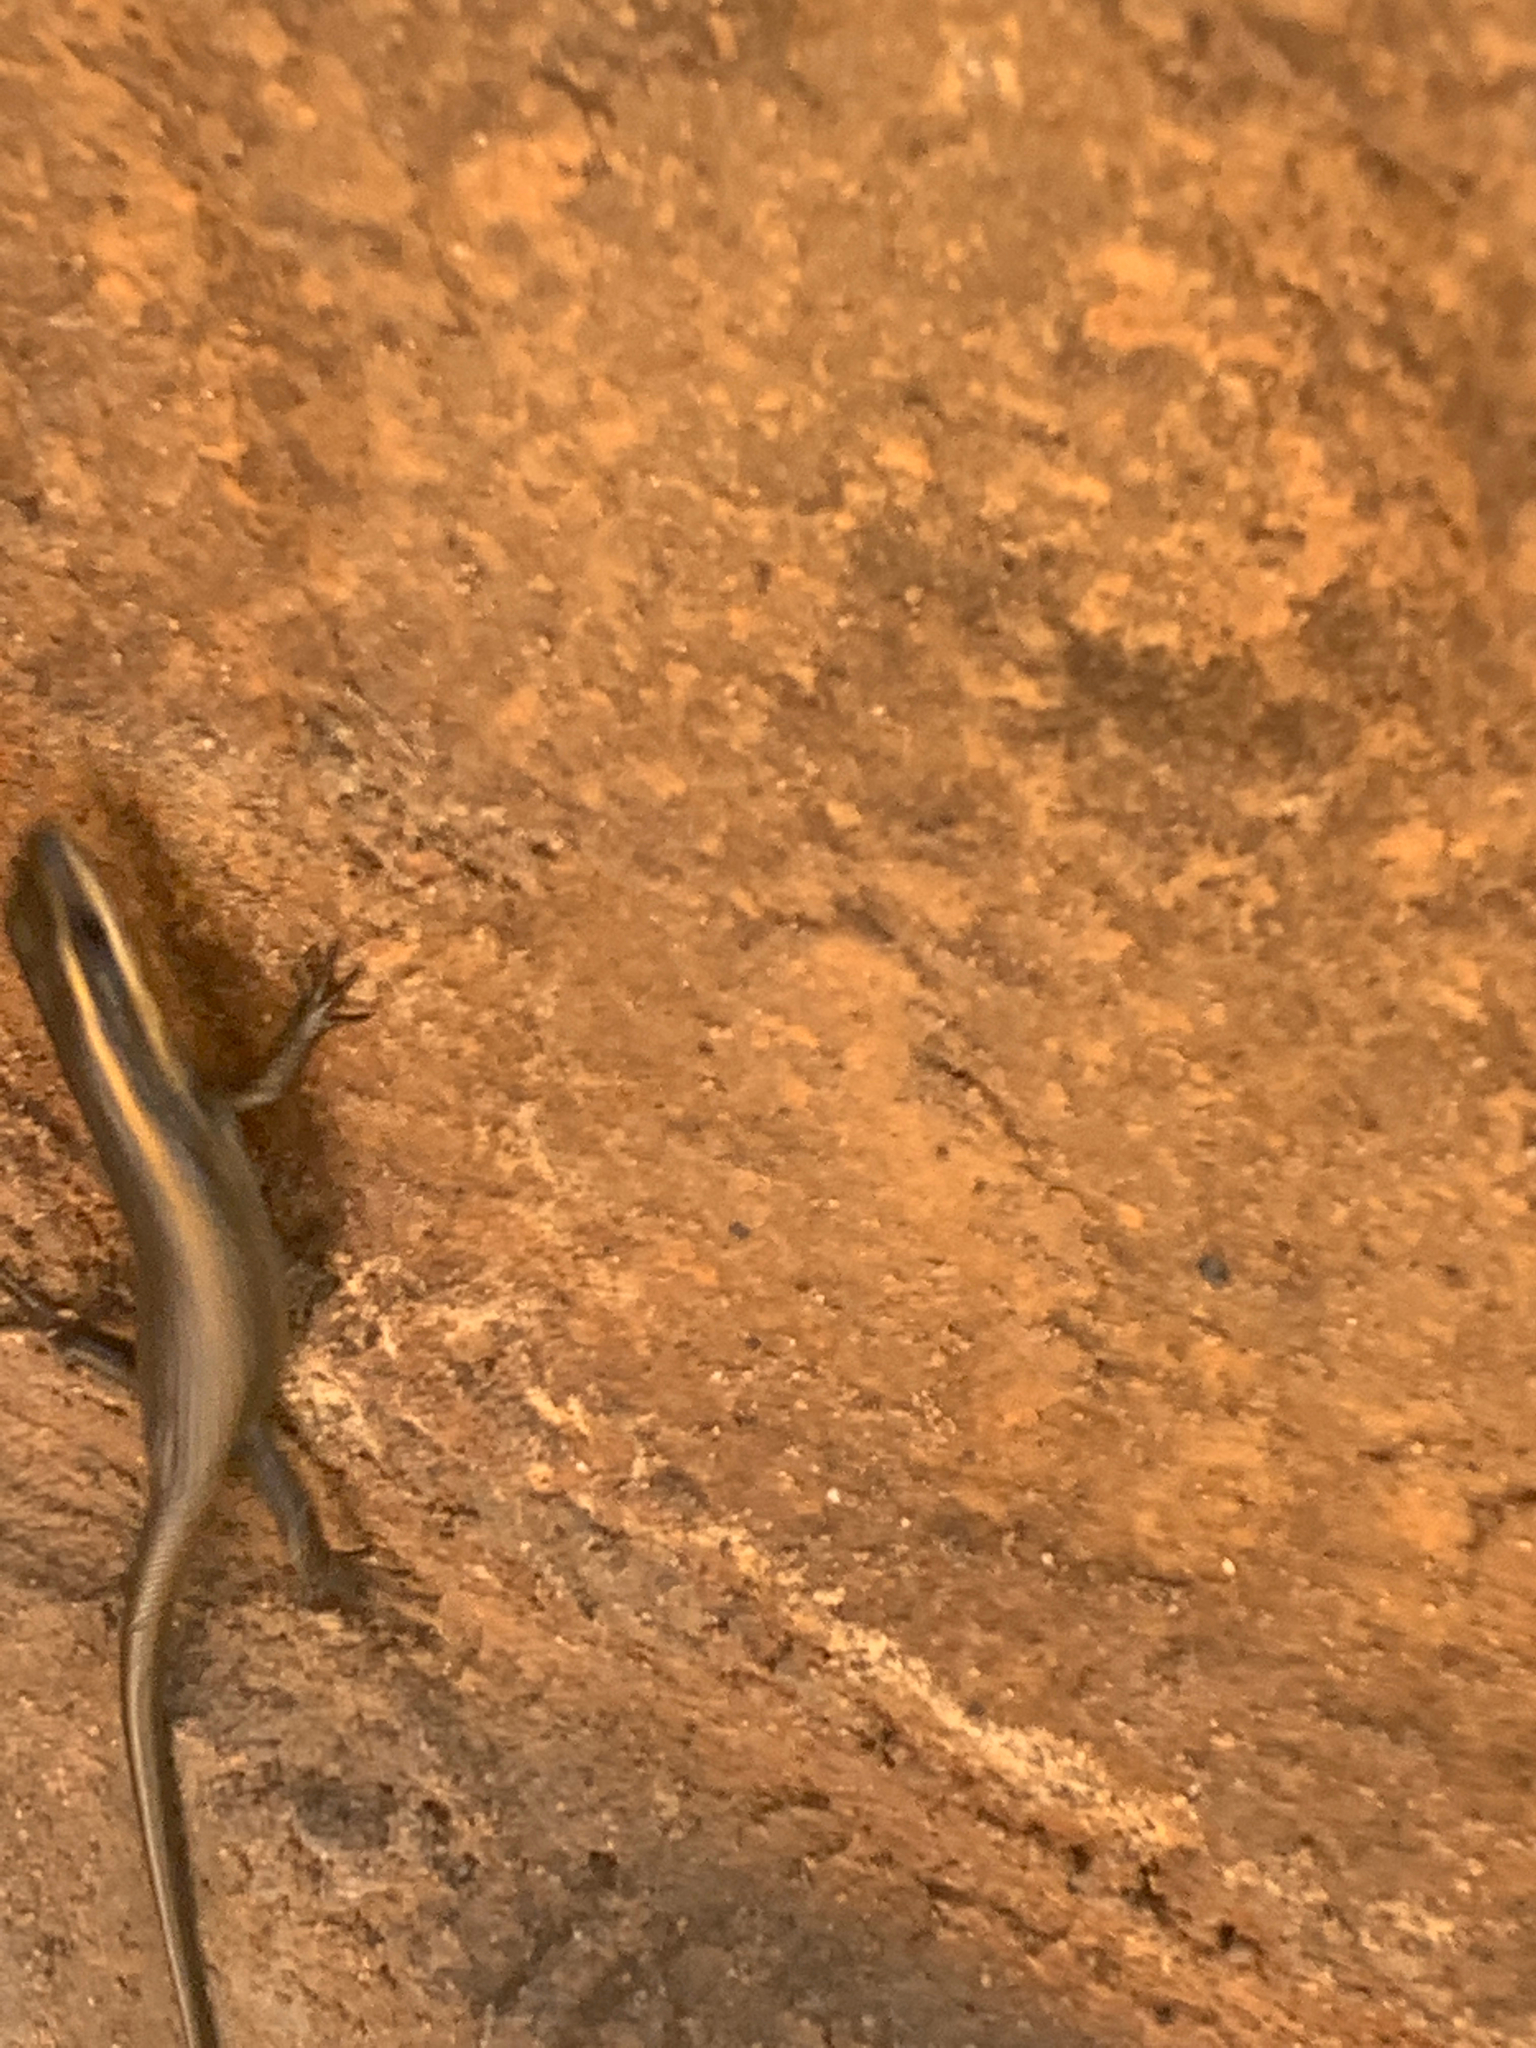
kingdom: Animalia
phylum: Chordata
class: Squamata
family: Scincidae
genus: Trachylepis
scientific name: Trachylepis punctatissima
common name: Montane speckled skink
